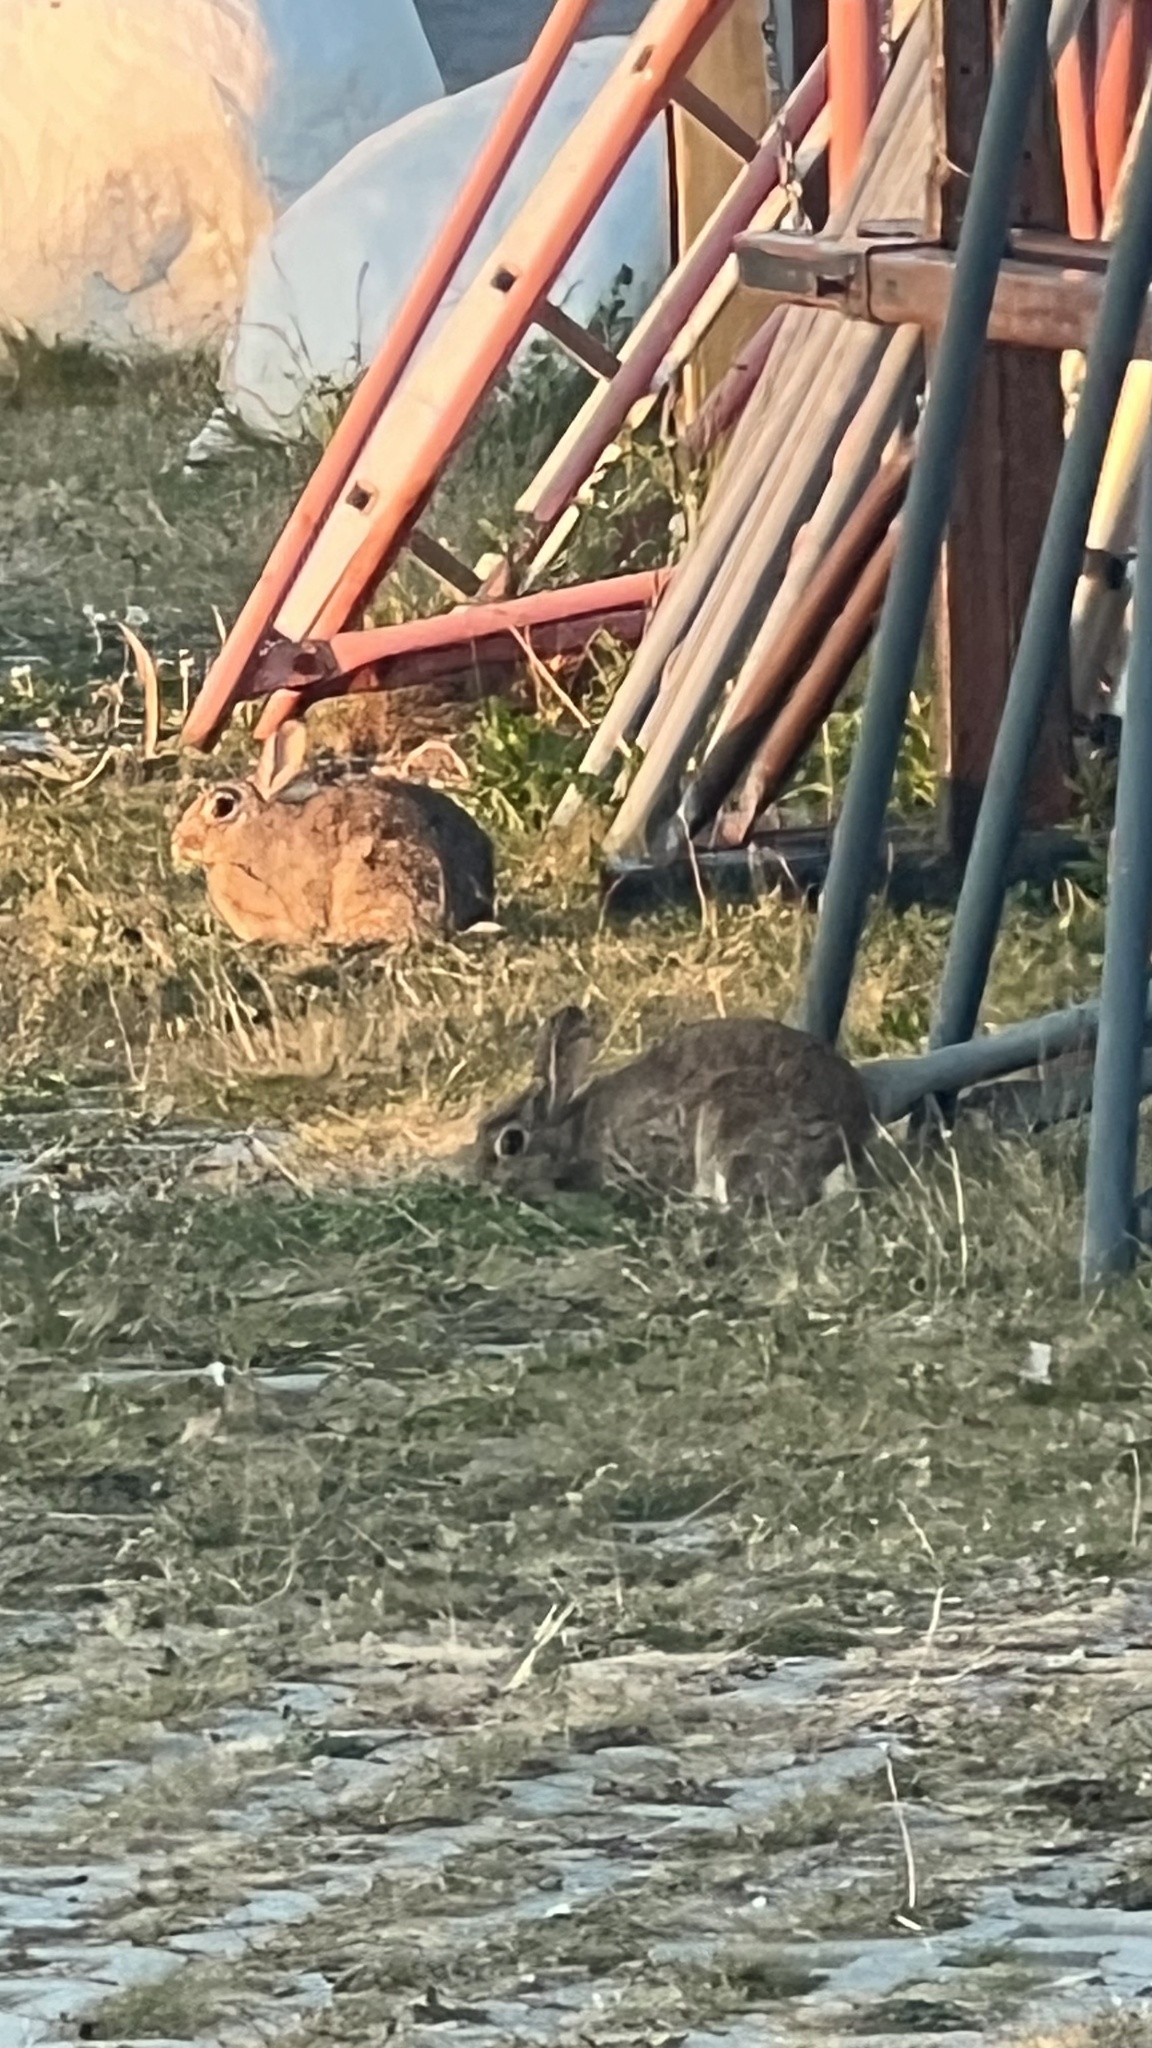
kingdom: Animalia
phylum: Chordata
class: Mammalia
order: Lagomorpha
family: Leporidae
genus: Oryctolagus
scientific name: Oryctolagus cuniculus
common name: European rabbit
